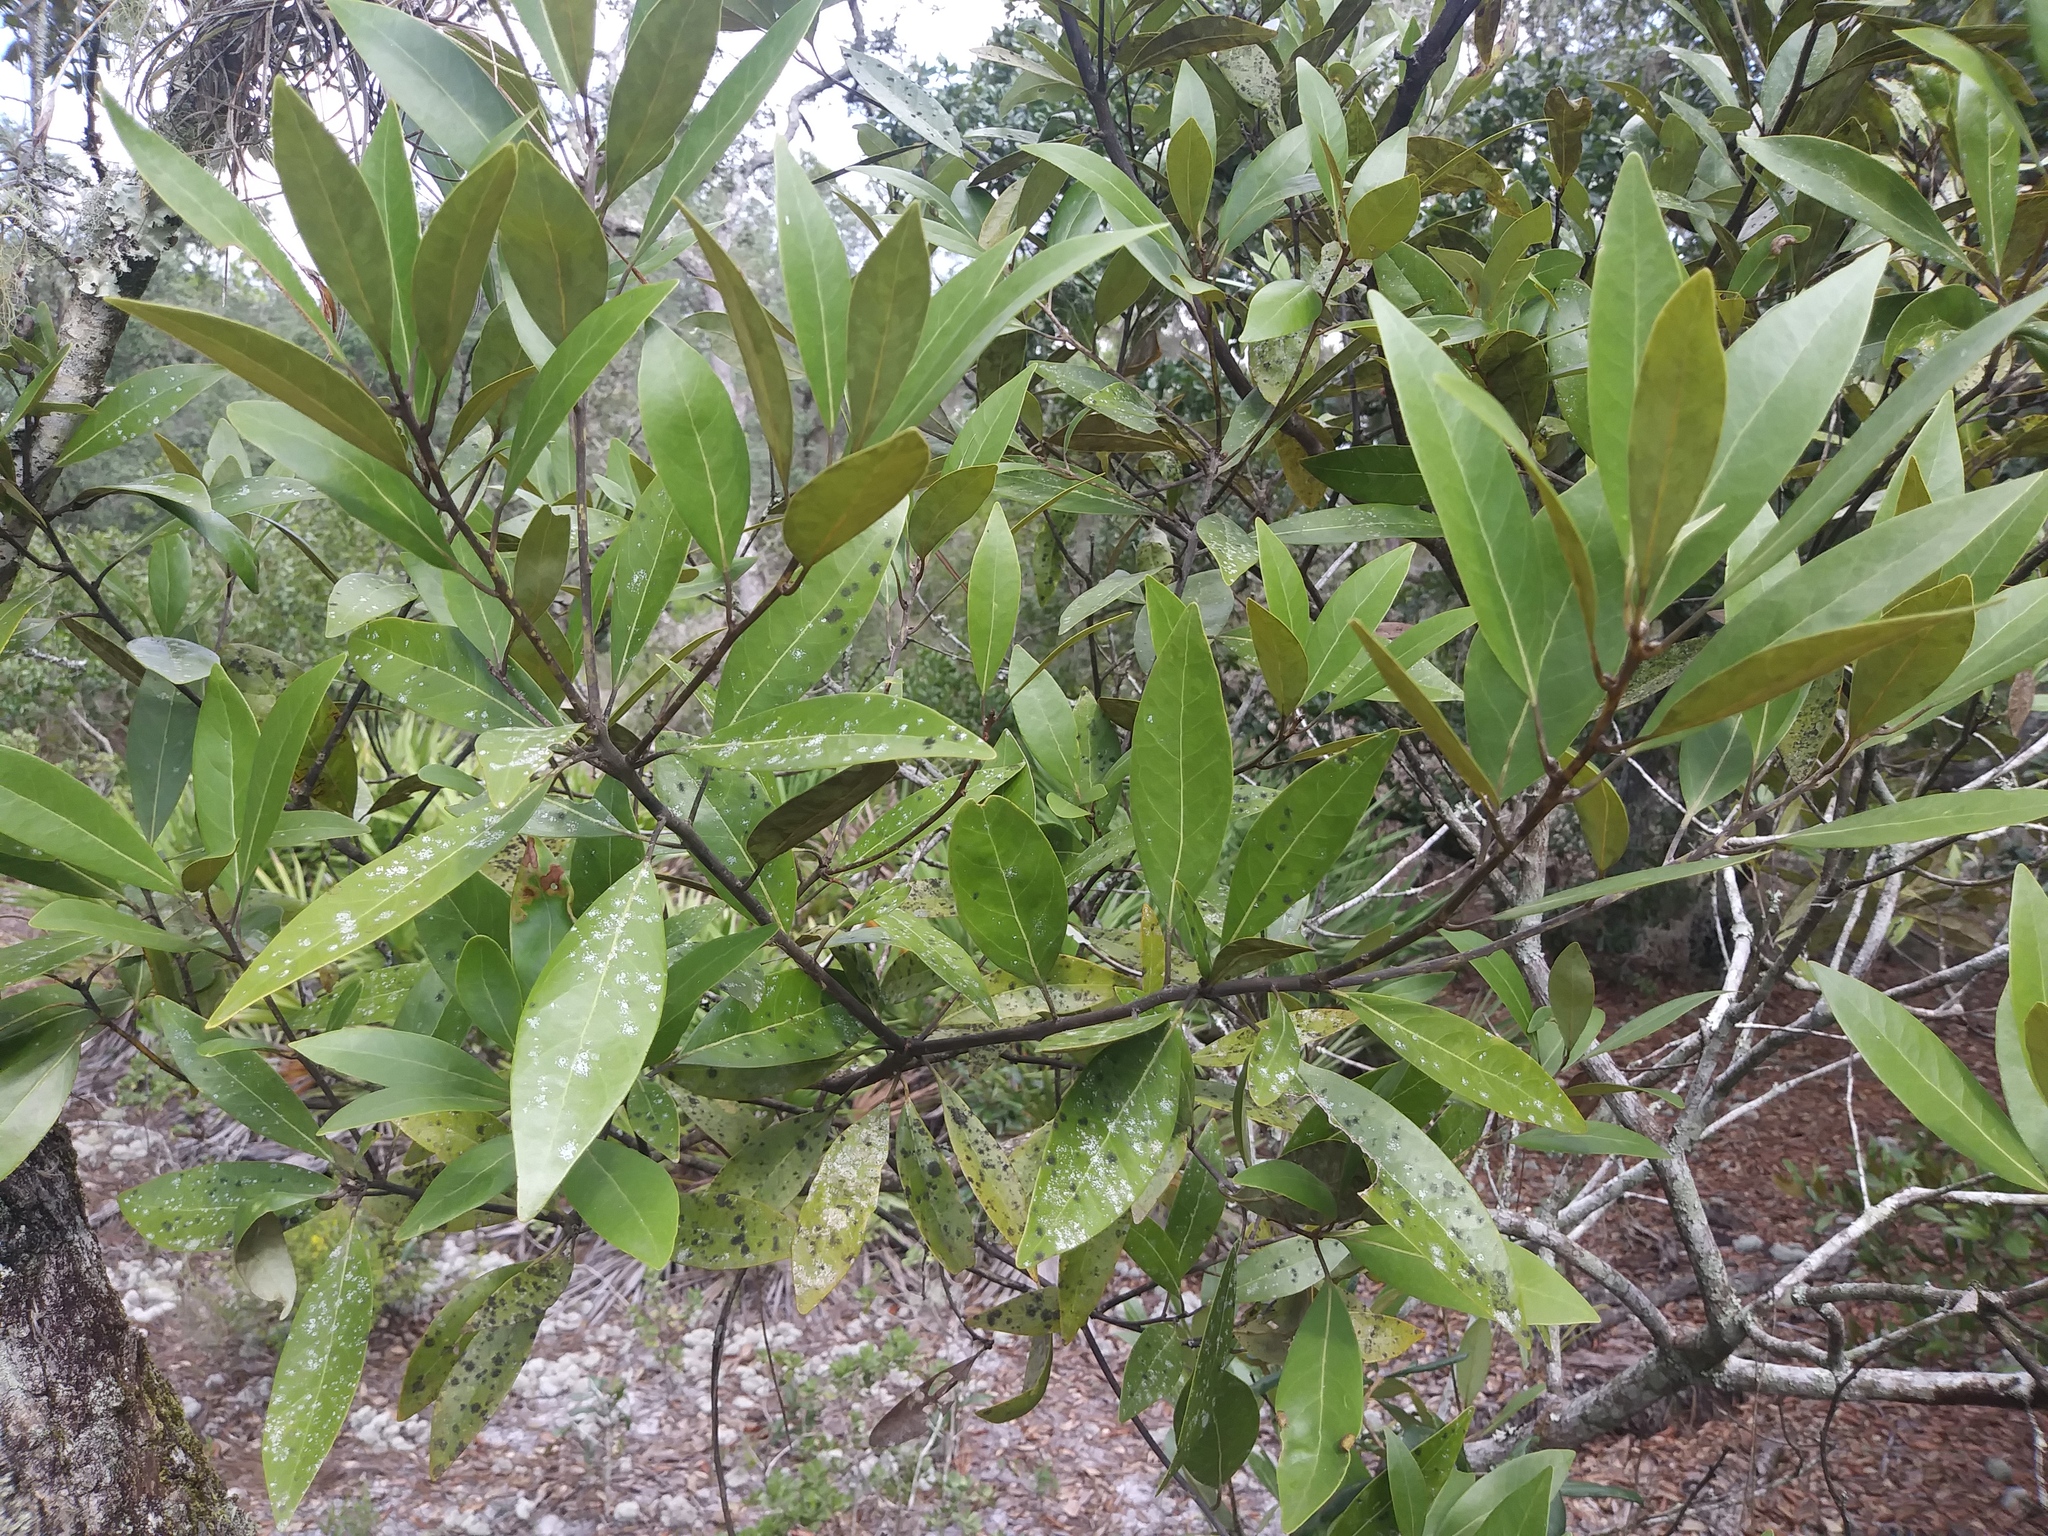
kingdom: Plantae
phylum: Tracheophyta
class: Magnoliopsida
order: Laurales
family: Lauraceae
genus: Persea
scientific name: Persea humilis
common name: Silkbay
